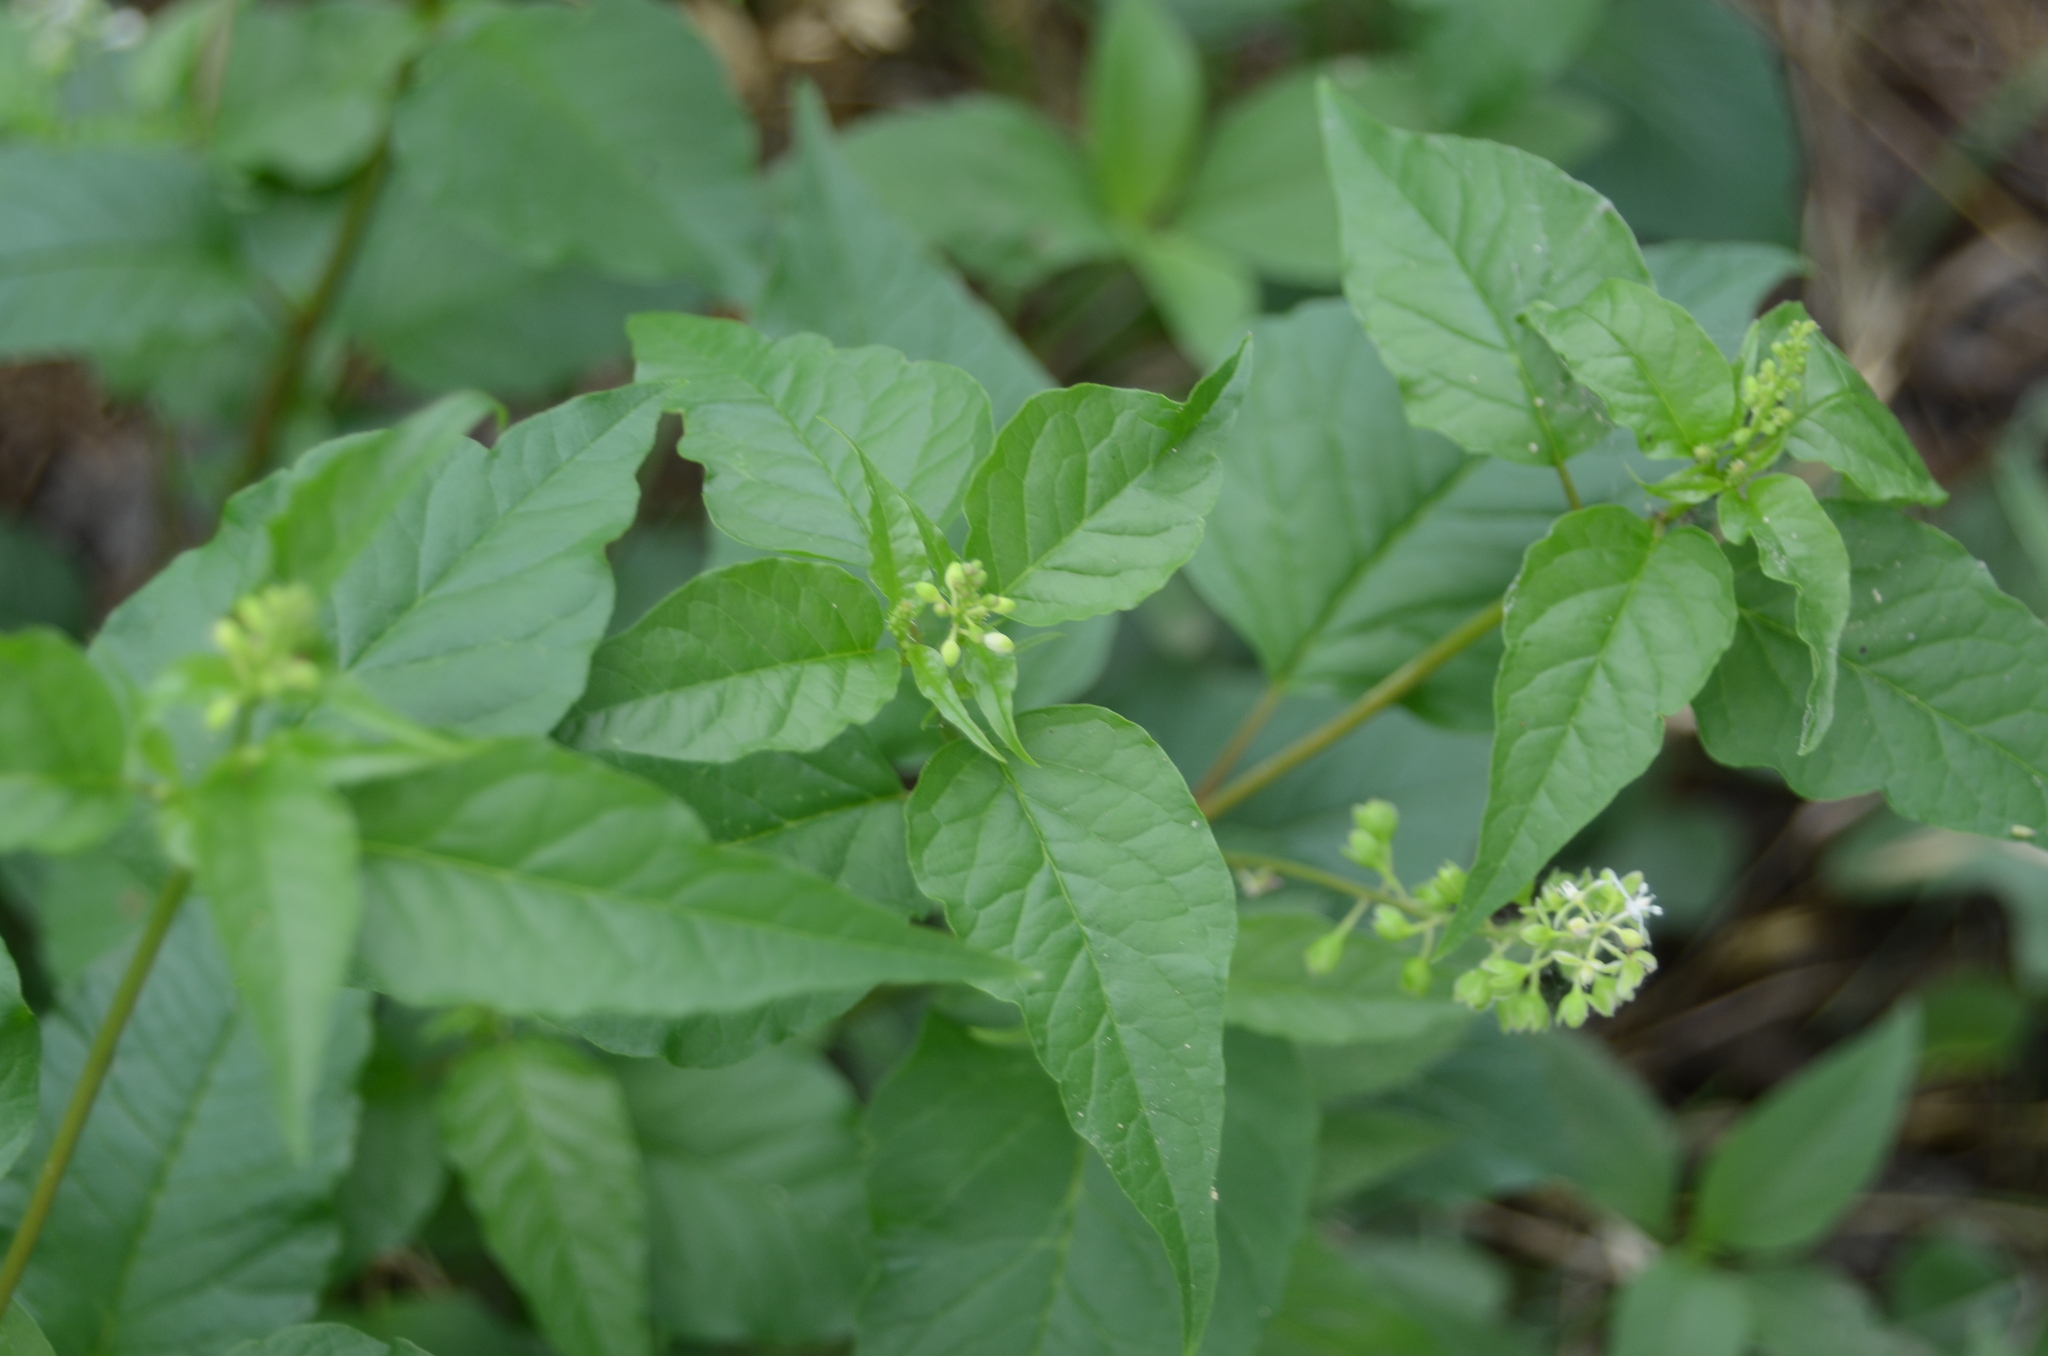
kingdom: Plantae
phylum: Tracheophyta
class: Magnoliopsida
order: Caryophyllales
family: Phytolaccaceae
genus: Rivina
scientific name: Rivina humilis
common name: Rougeplant
